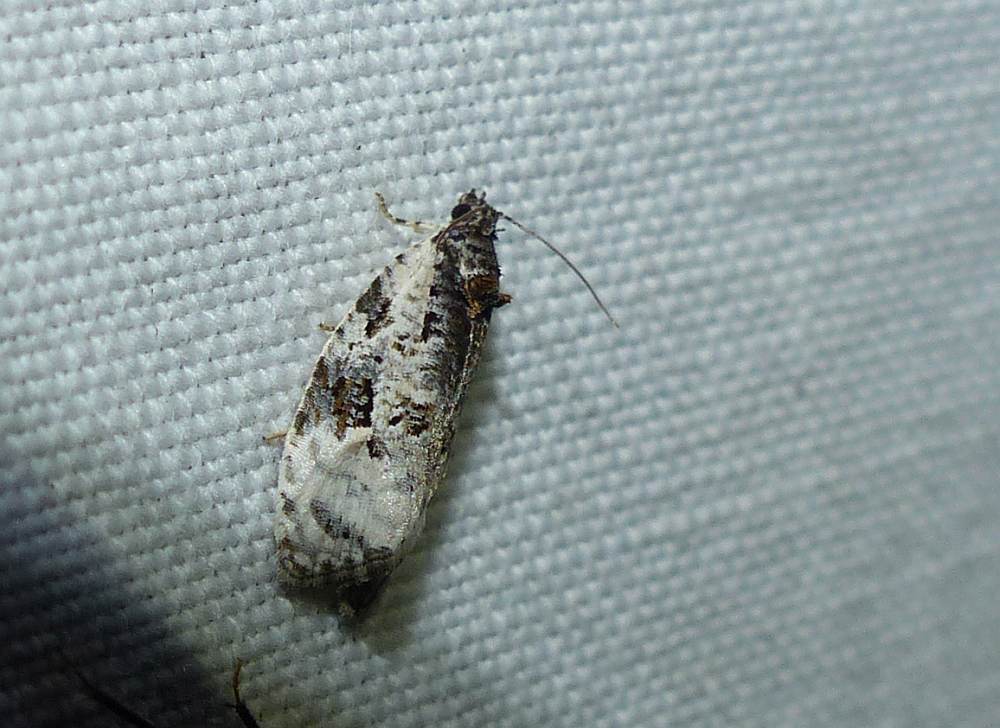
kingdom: Animalia
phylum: Arthropoda
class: Insecta
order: Lepidoptera
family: Tortricidae
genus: Apotomis
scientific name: Apotomis albeolana
